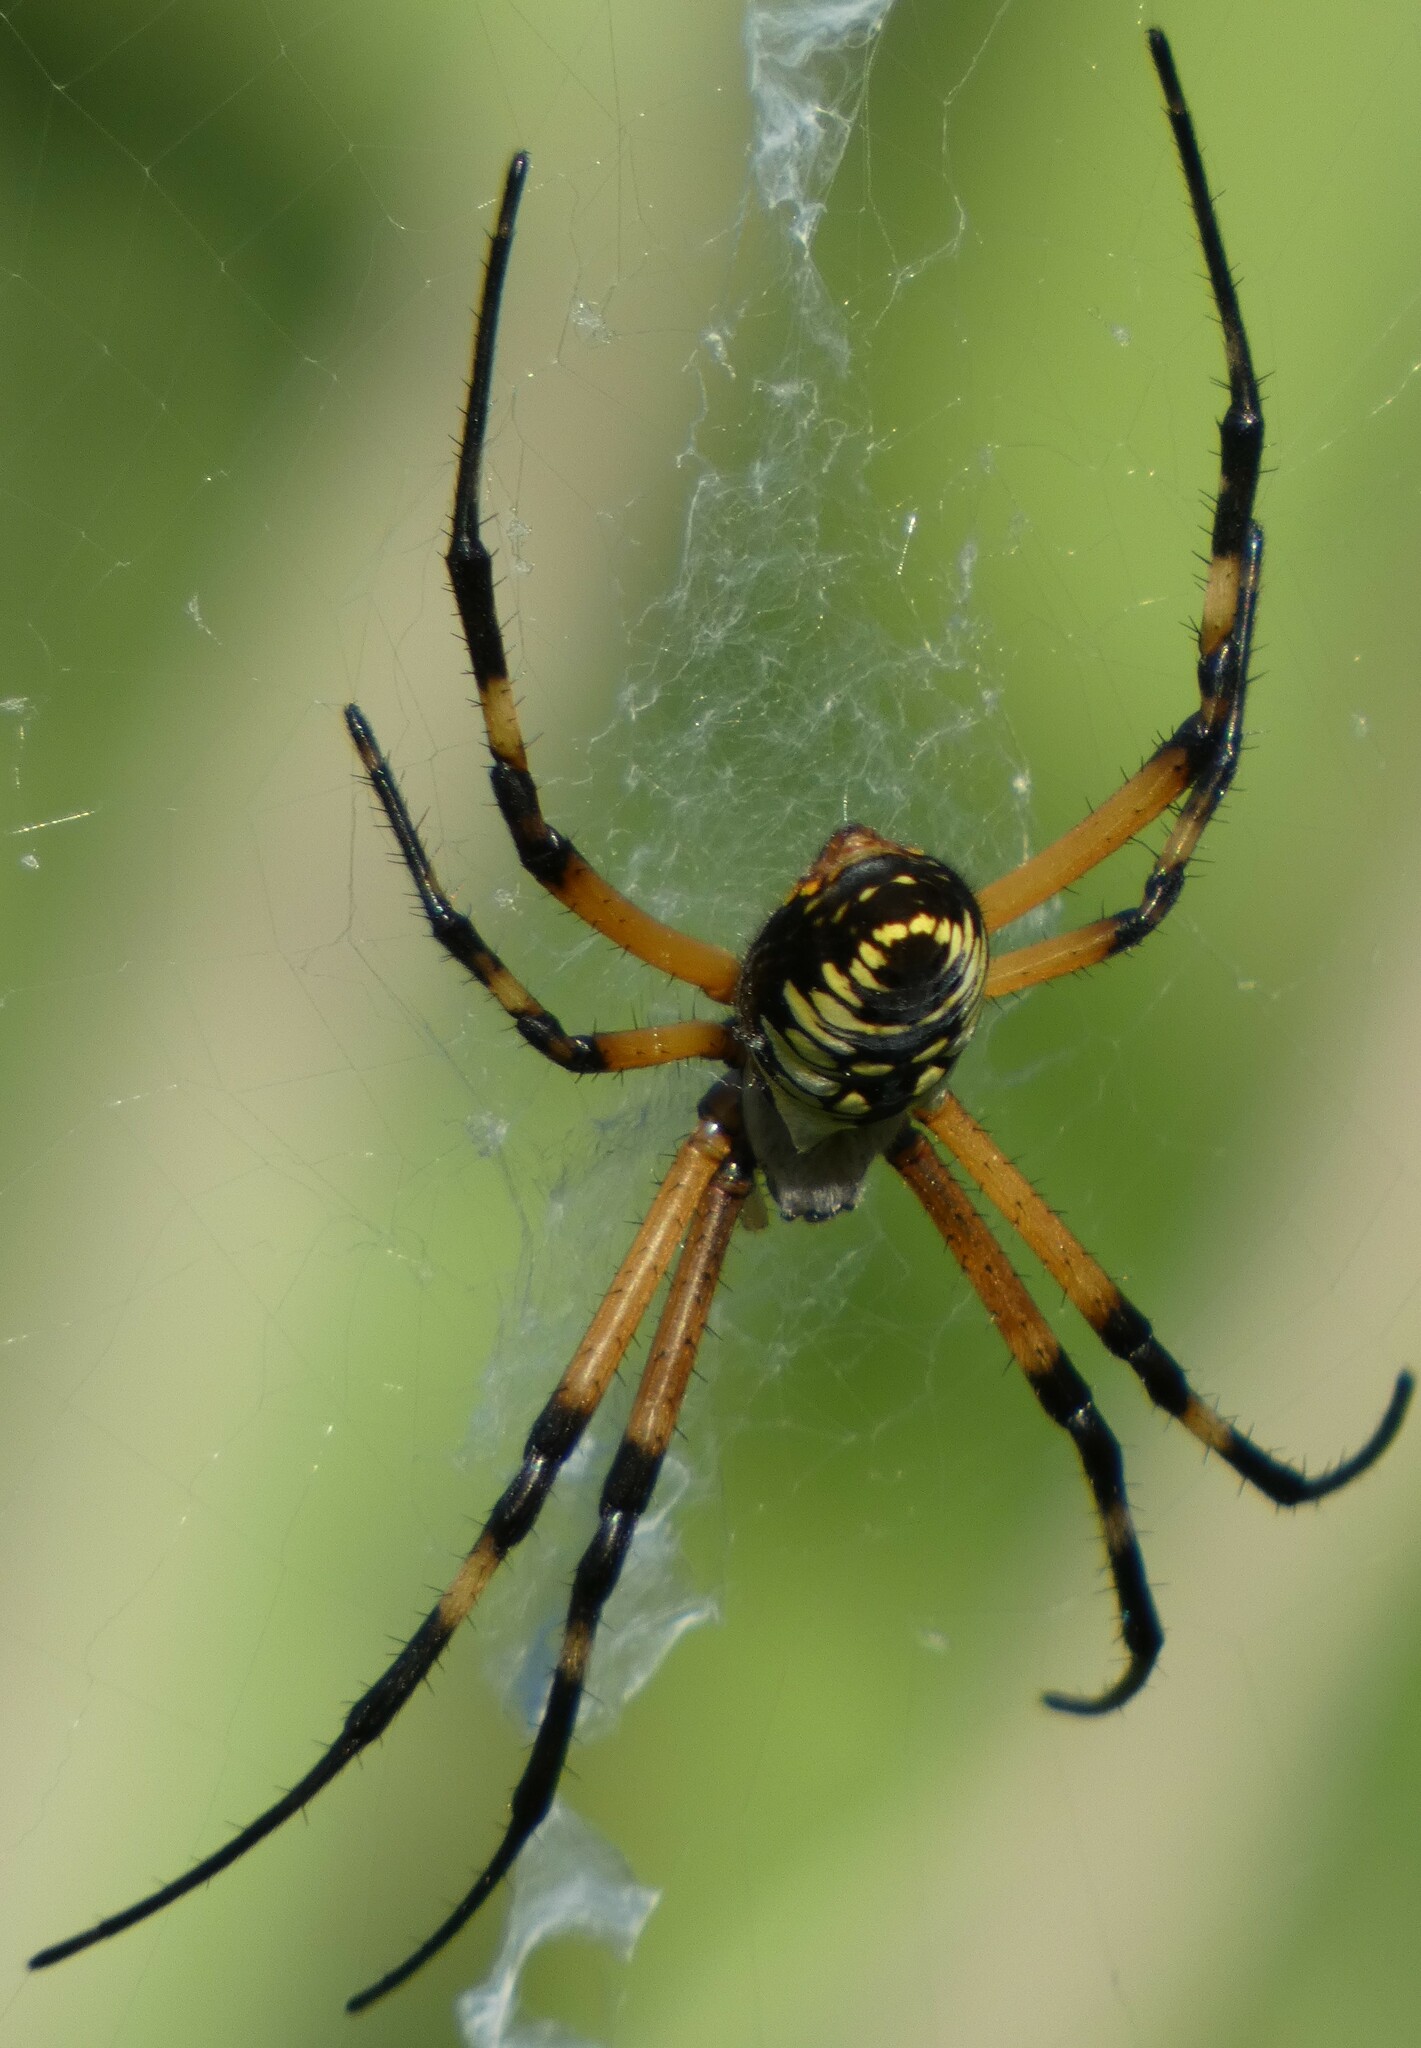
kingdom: Animalia
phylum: Arthropoda
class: Arachnida
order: Araneae
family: Araneidae
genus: Argiope
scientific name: Argiope aurantia
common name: Orb weavers
